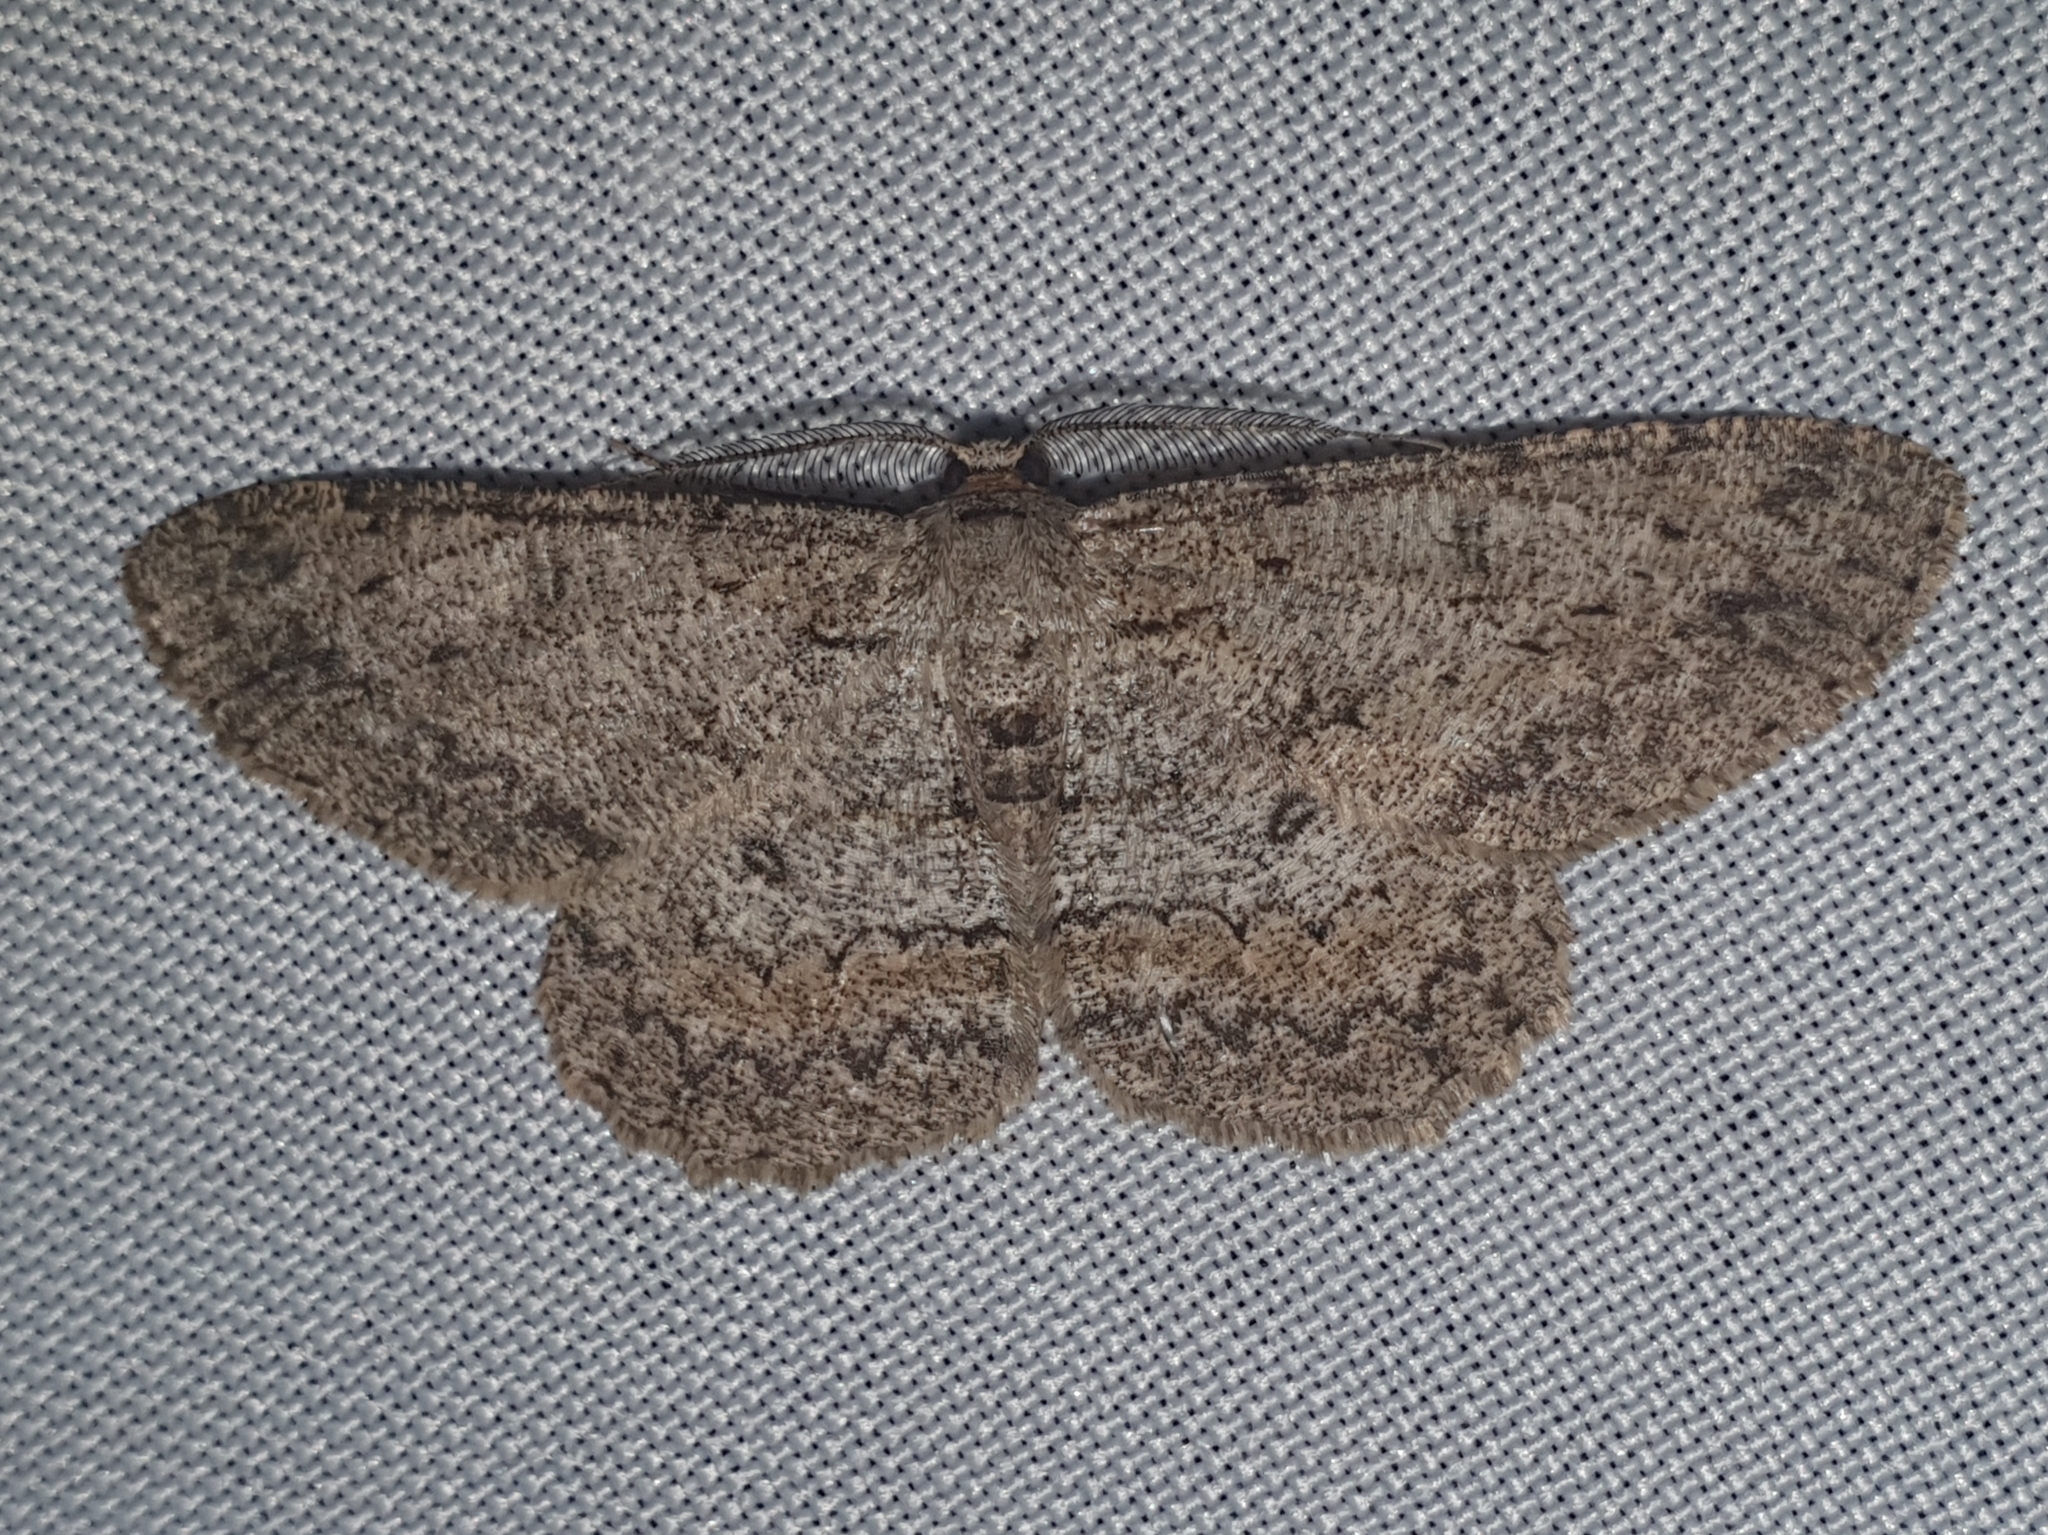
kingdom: Animalia
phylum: Arthropoda
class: Insecta
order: Lepidoptera
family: Geometridae
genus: Hypomecis
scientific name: Hypomecis punctinalis
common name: Pale oak beauty
